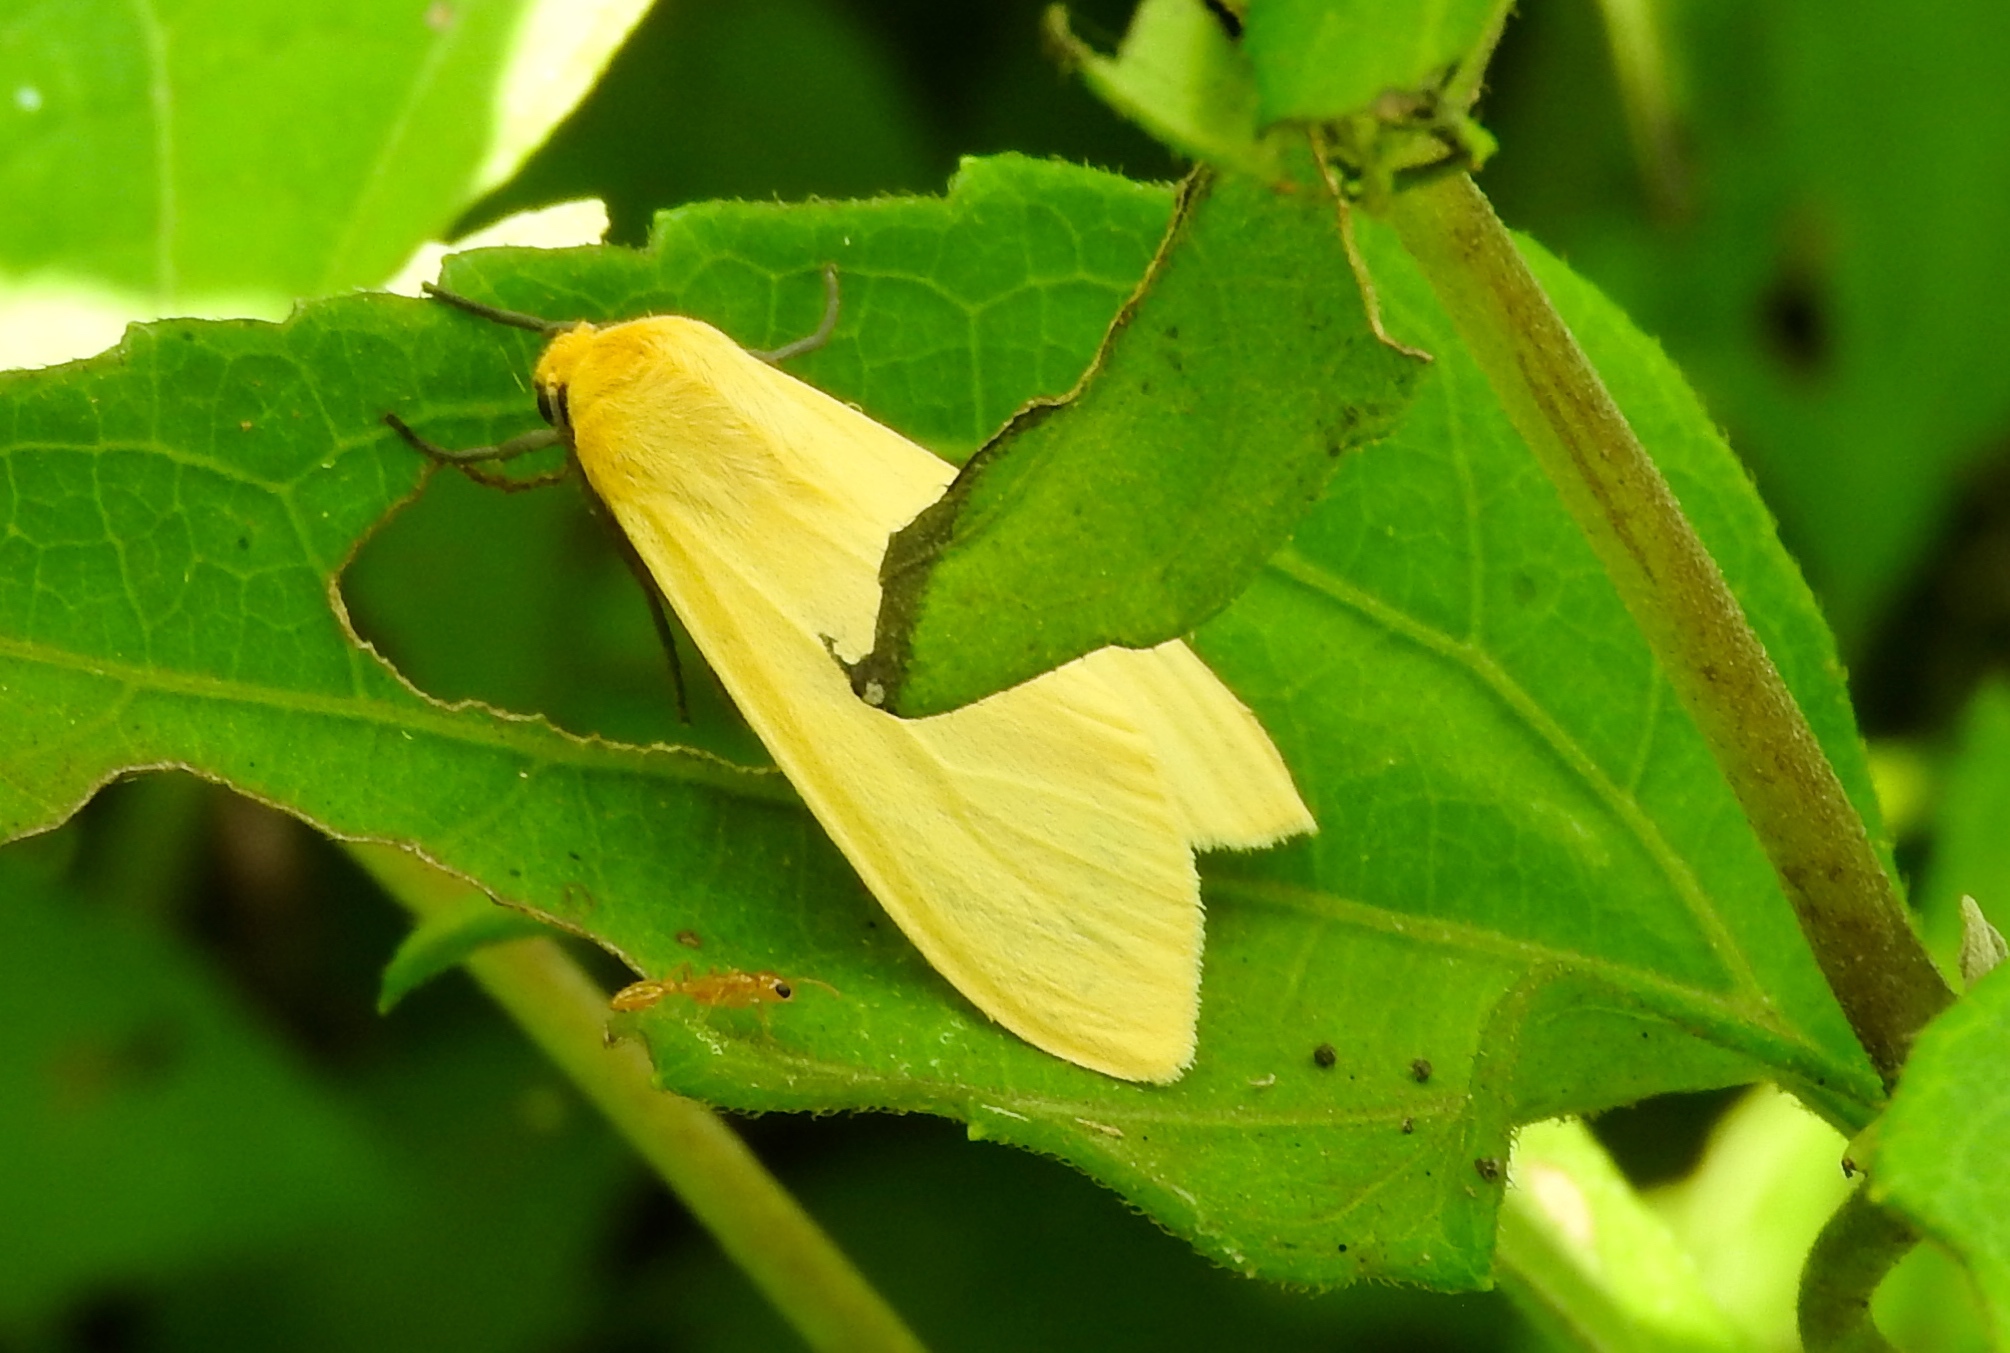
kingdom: Animalia
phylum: Arthropoda
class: Insecta
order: Lepidoptera
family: Erebidae
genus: Pareuchaetes
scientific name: Pareuchaetes insulata
